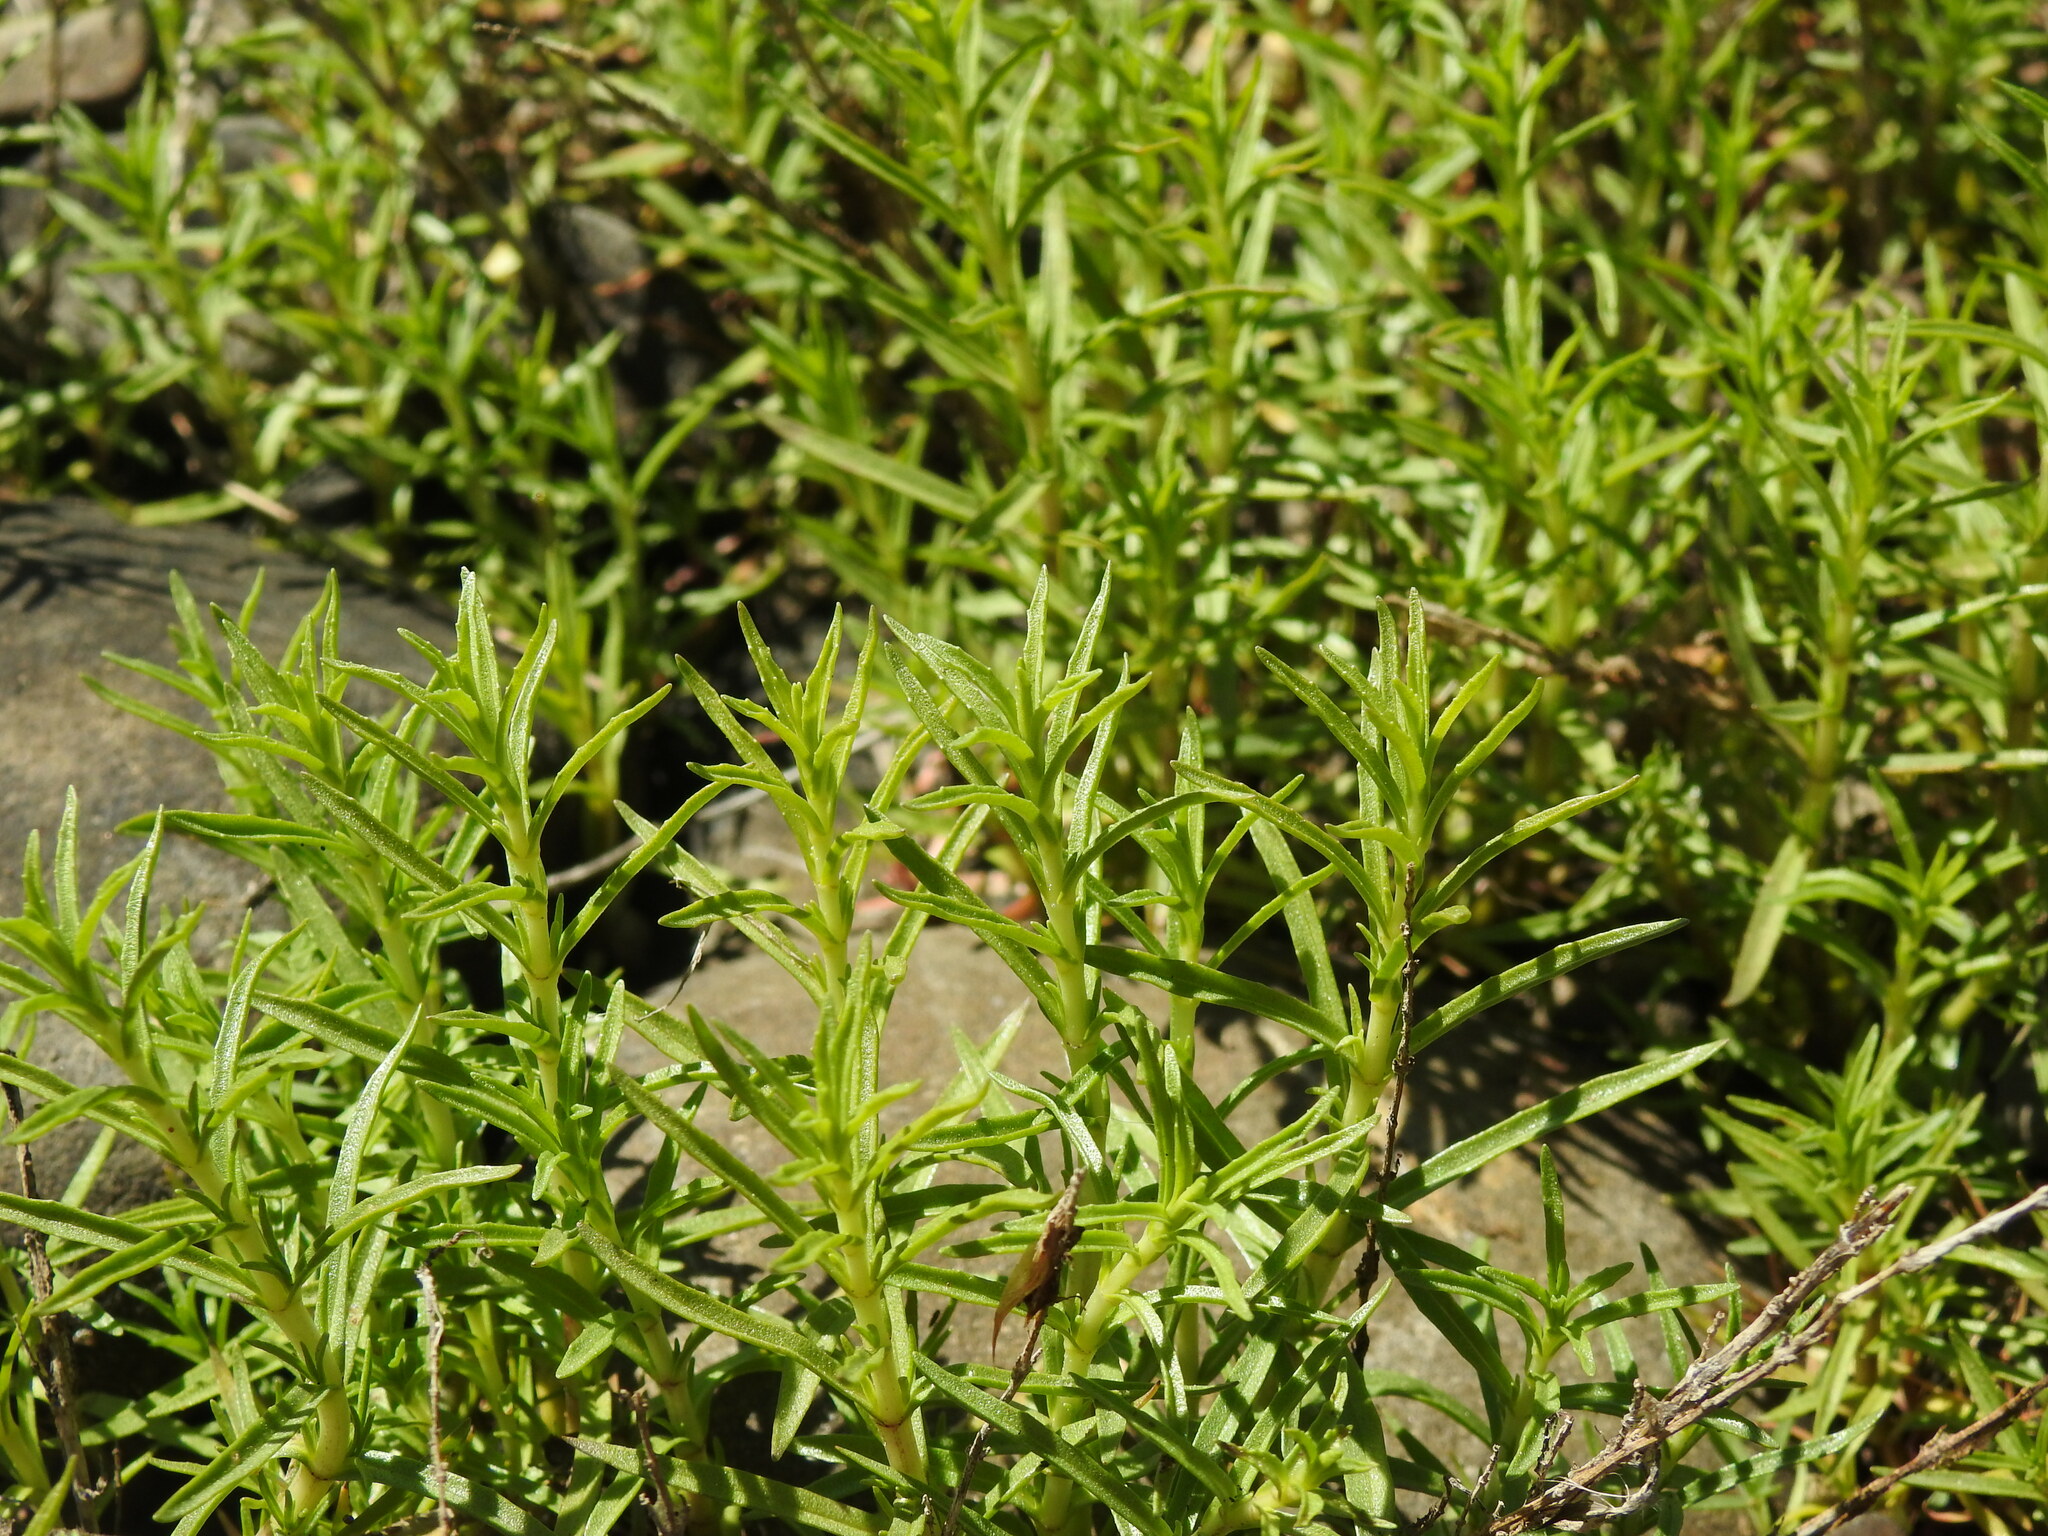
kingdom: Plantae
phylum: Tracheophyta
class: Magnoliopsida
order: Lamiales
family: Lamiaceae
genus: Mentha
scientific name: Mentha cervina
